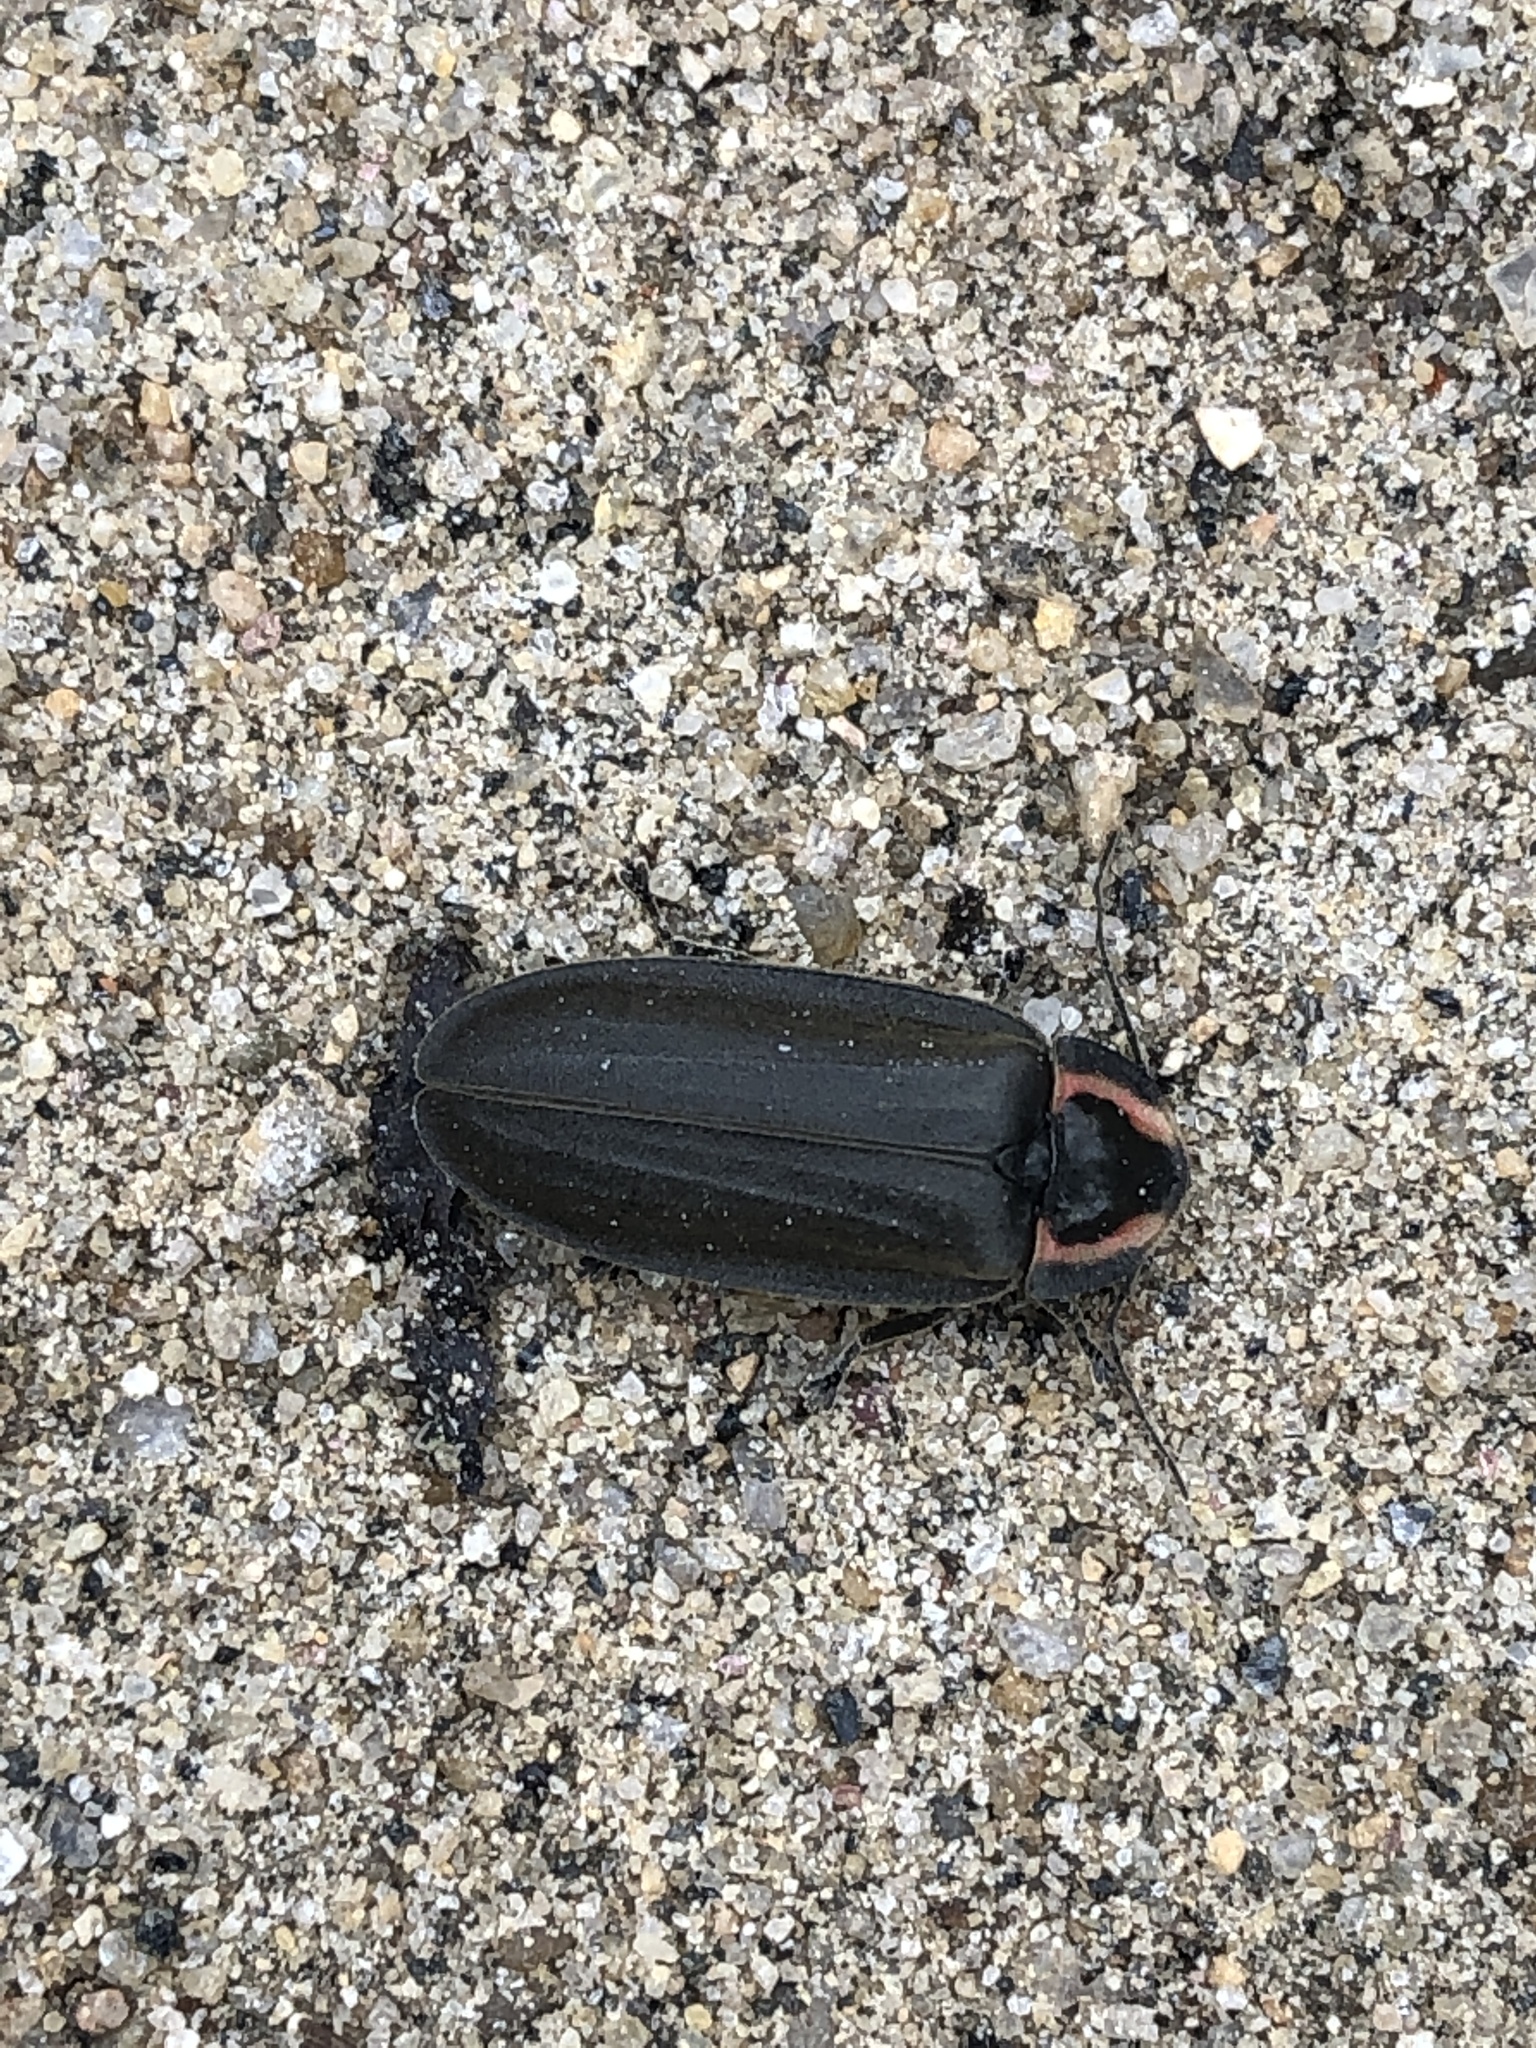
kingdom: Animalia
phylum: Arthropoda
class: Insecta
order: Coleoptera
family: Lampyridae
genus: Photinus
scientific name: Photinus corrusca
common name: Winter firefly
